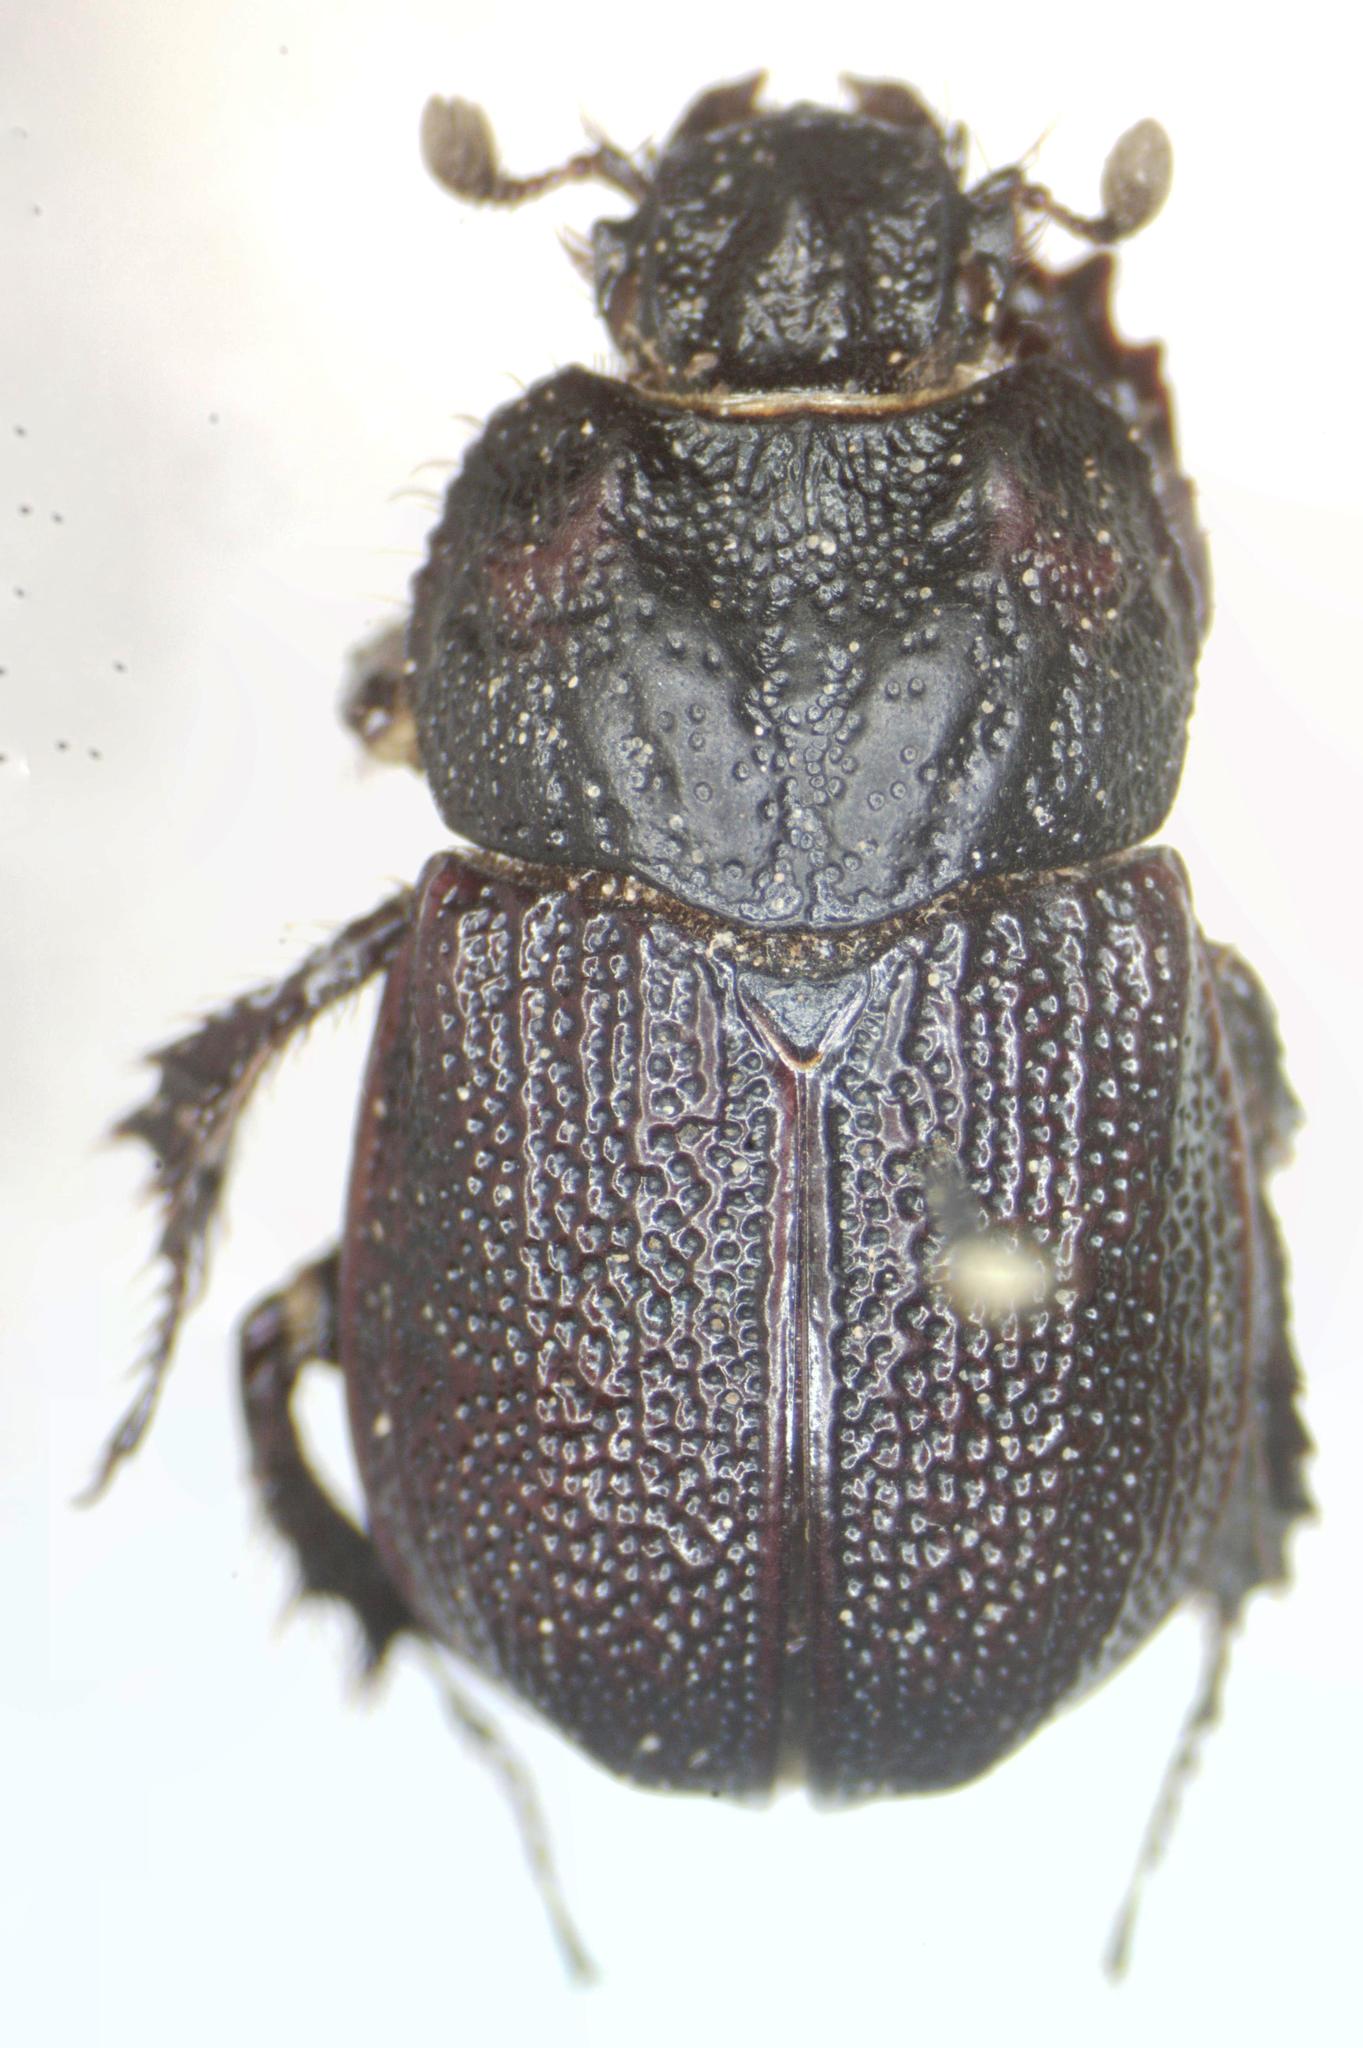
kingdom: Animalia
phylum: Arthropoda
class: Insecta
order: Coleoptera
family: Geotrupidae
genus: Frickius
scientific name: Frickius variolosus
